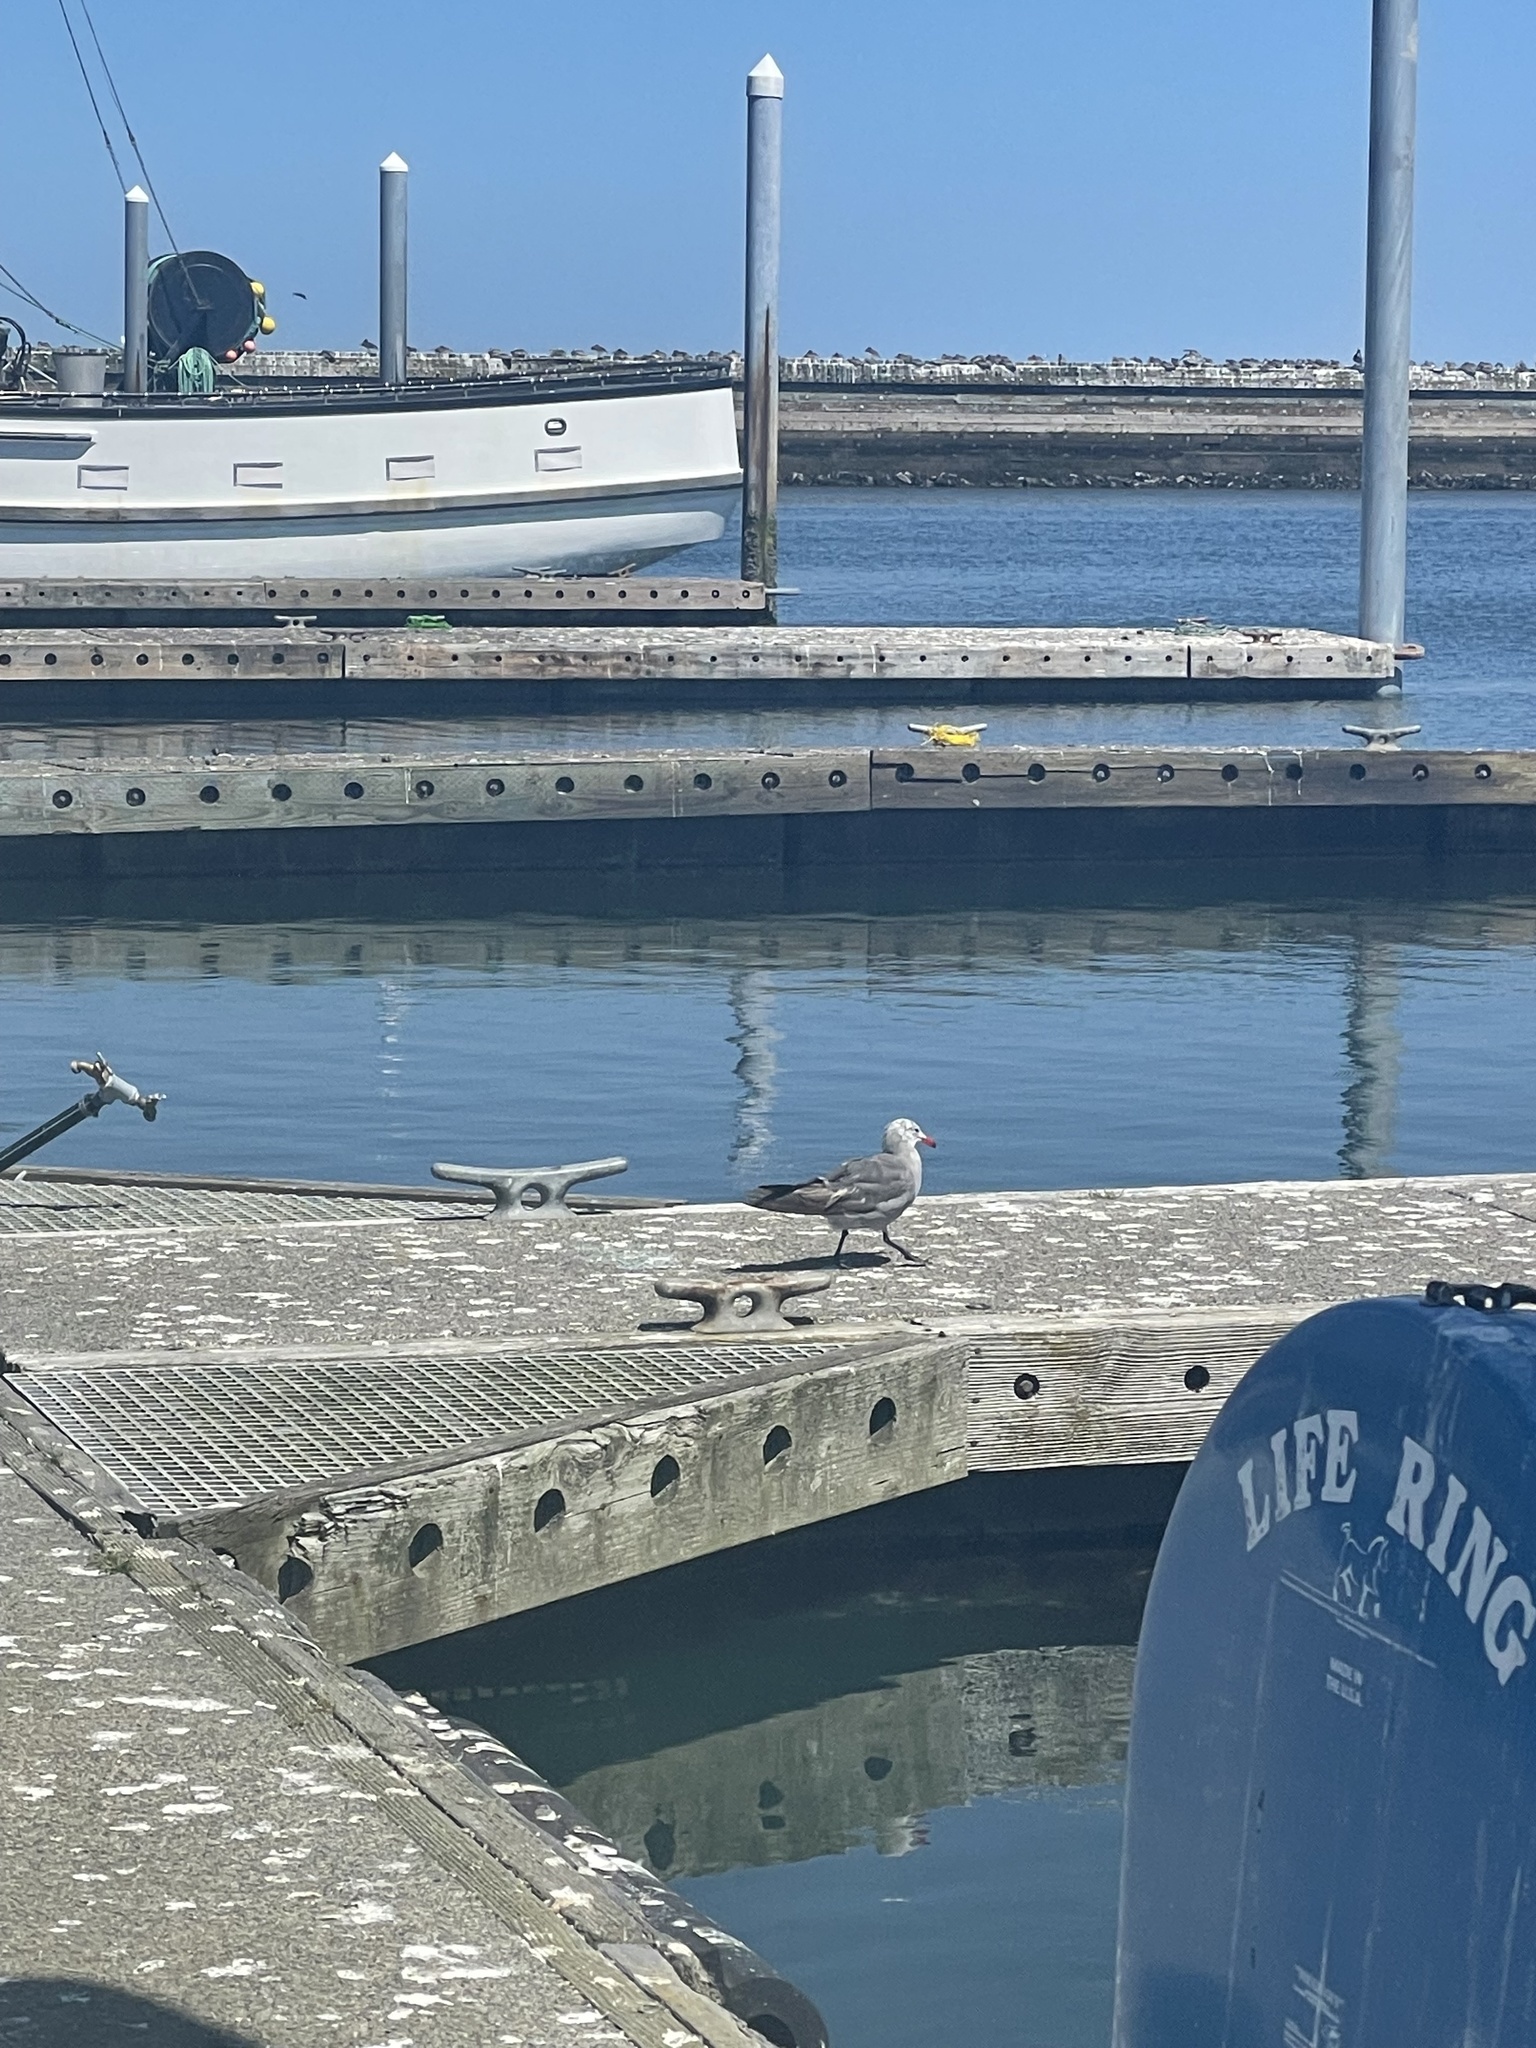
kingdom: Animalia
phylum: Chordata
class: Aves
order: Charadriiformes
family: Laridae
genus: Larus
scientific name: Larus heermanni
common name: Heermann's gull
